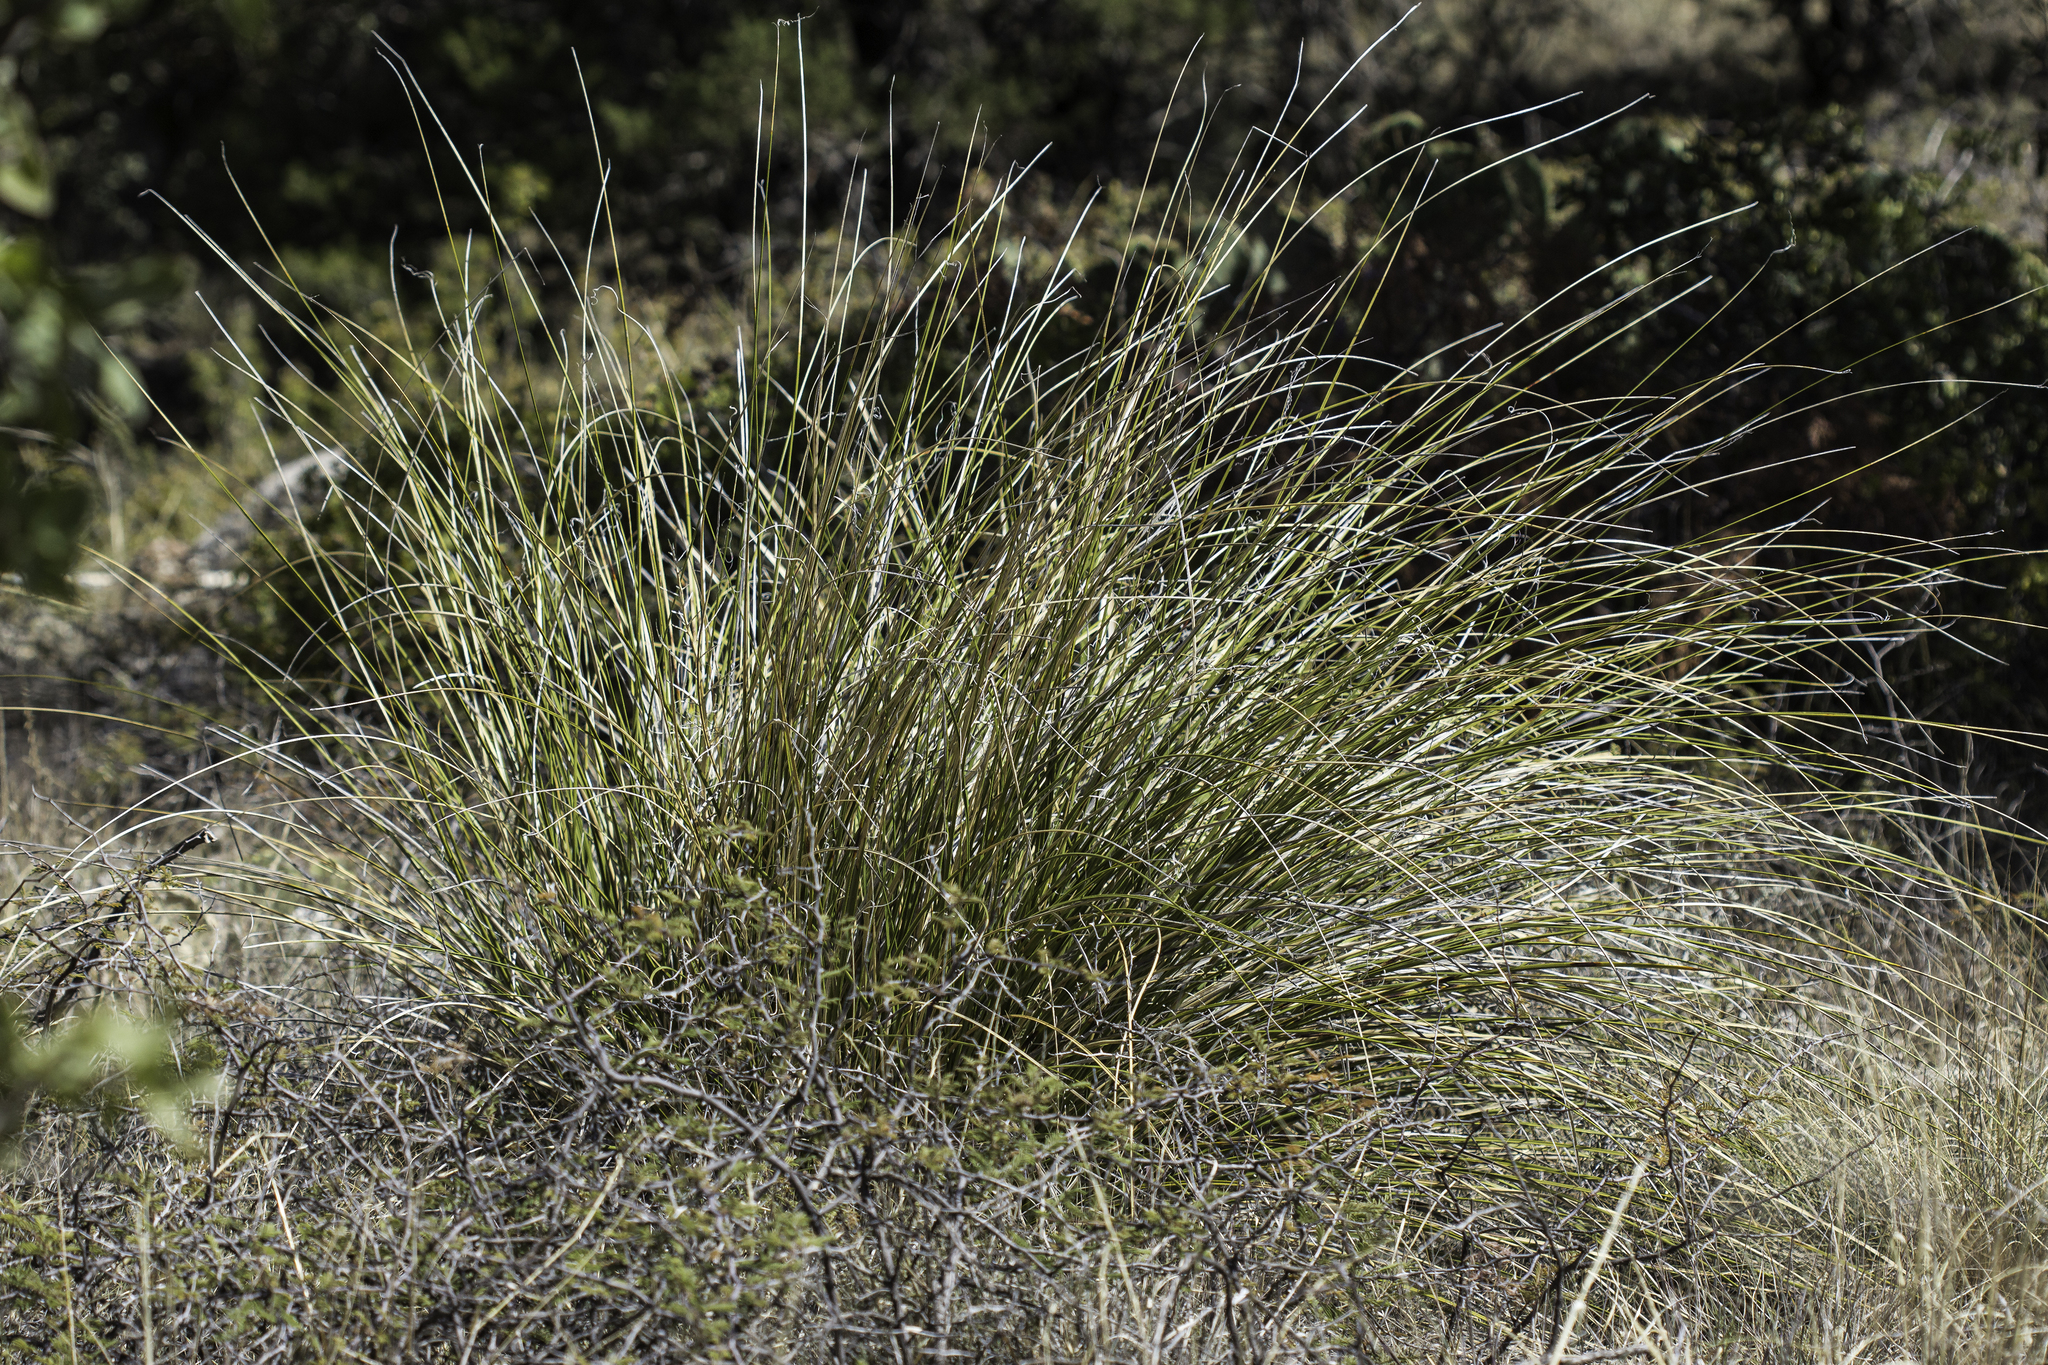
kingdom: Plantae
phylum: Tracheophyta
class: Liliopsida
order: Asparagales
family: Asparagaceae
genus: Nolina
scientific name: Nolina texana
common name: Texas sacahuiste
